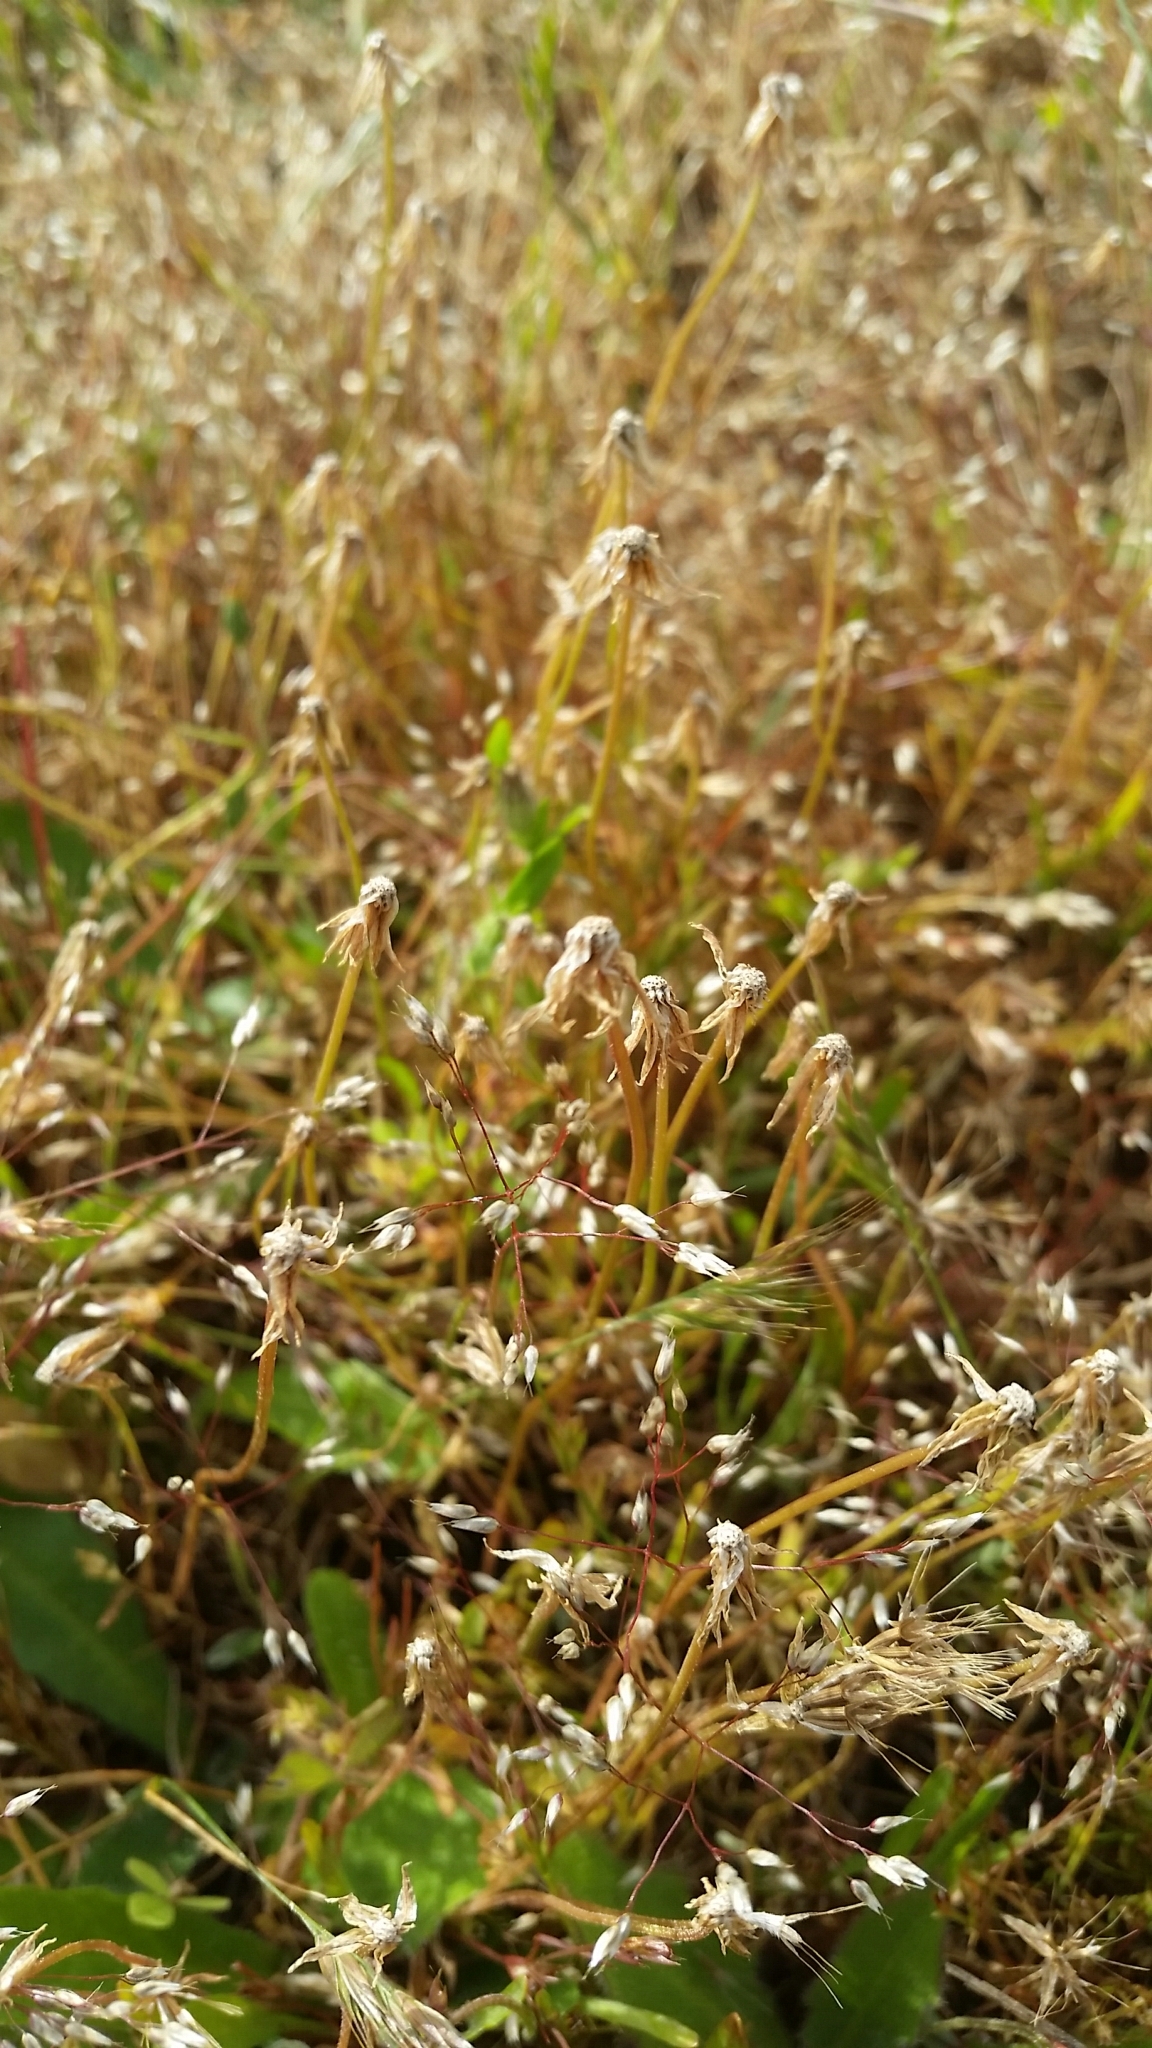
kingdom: Plantae
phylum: Tracheophyta
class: Magnoliopsida
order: Asterales
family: Asteraceae
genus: Microseris
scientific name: Microseris bigelovii
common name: Coast microseris
